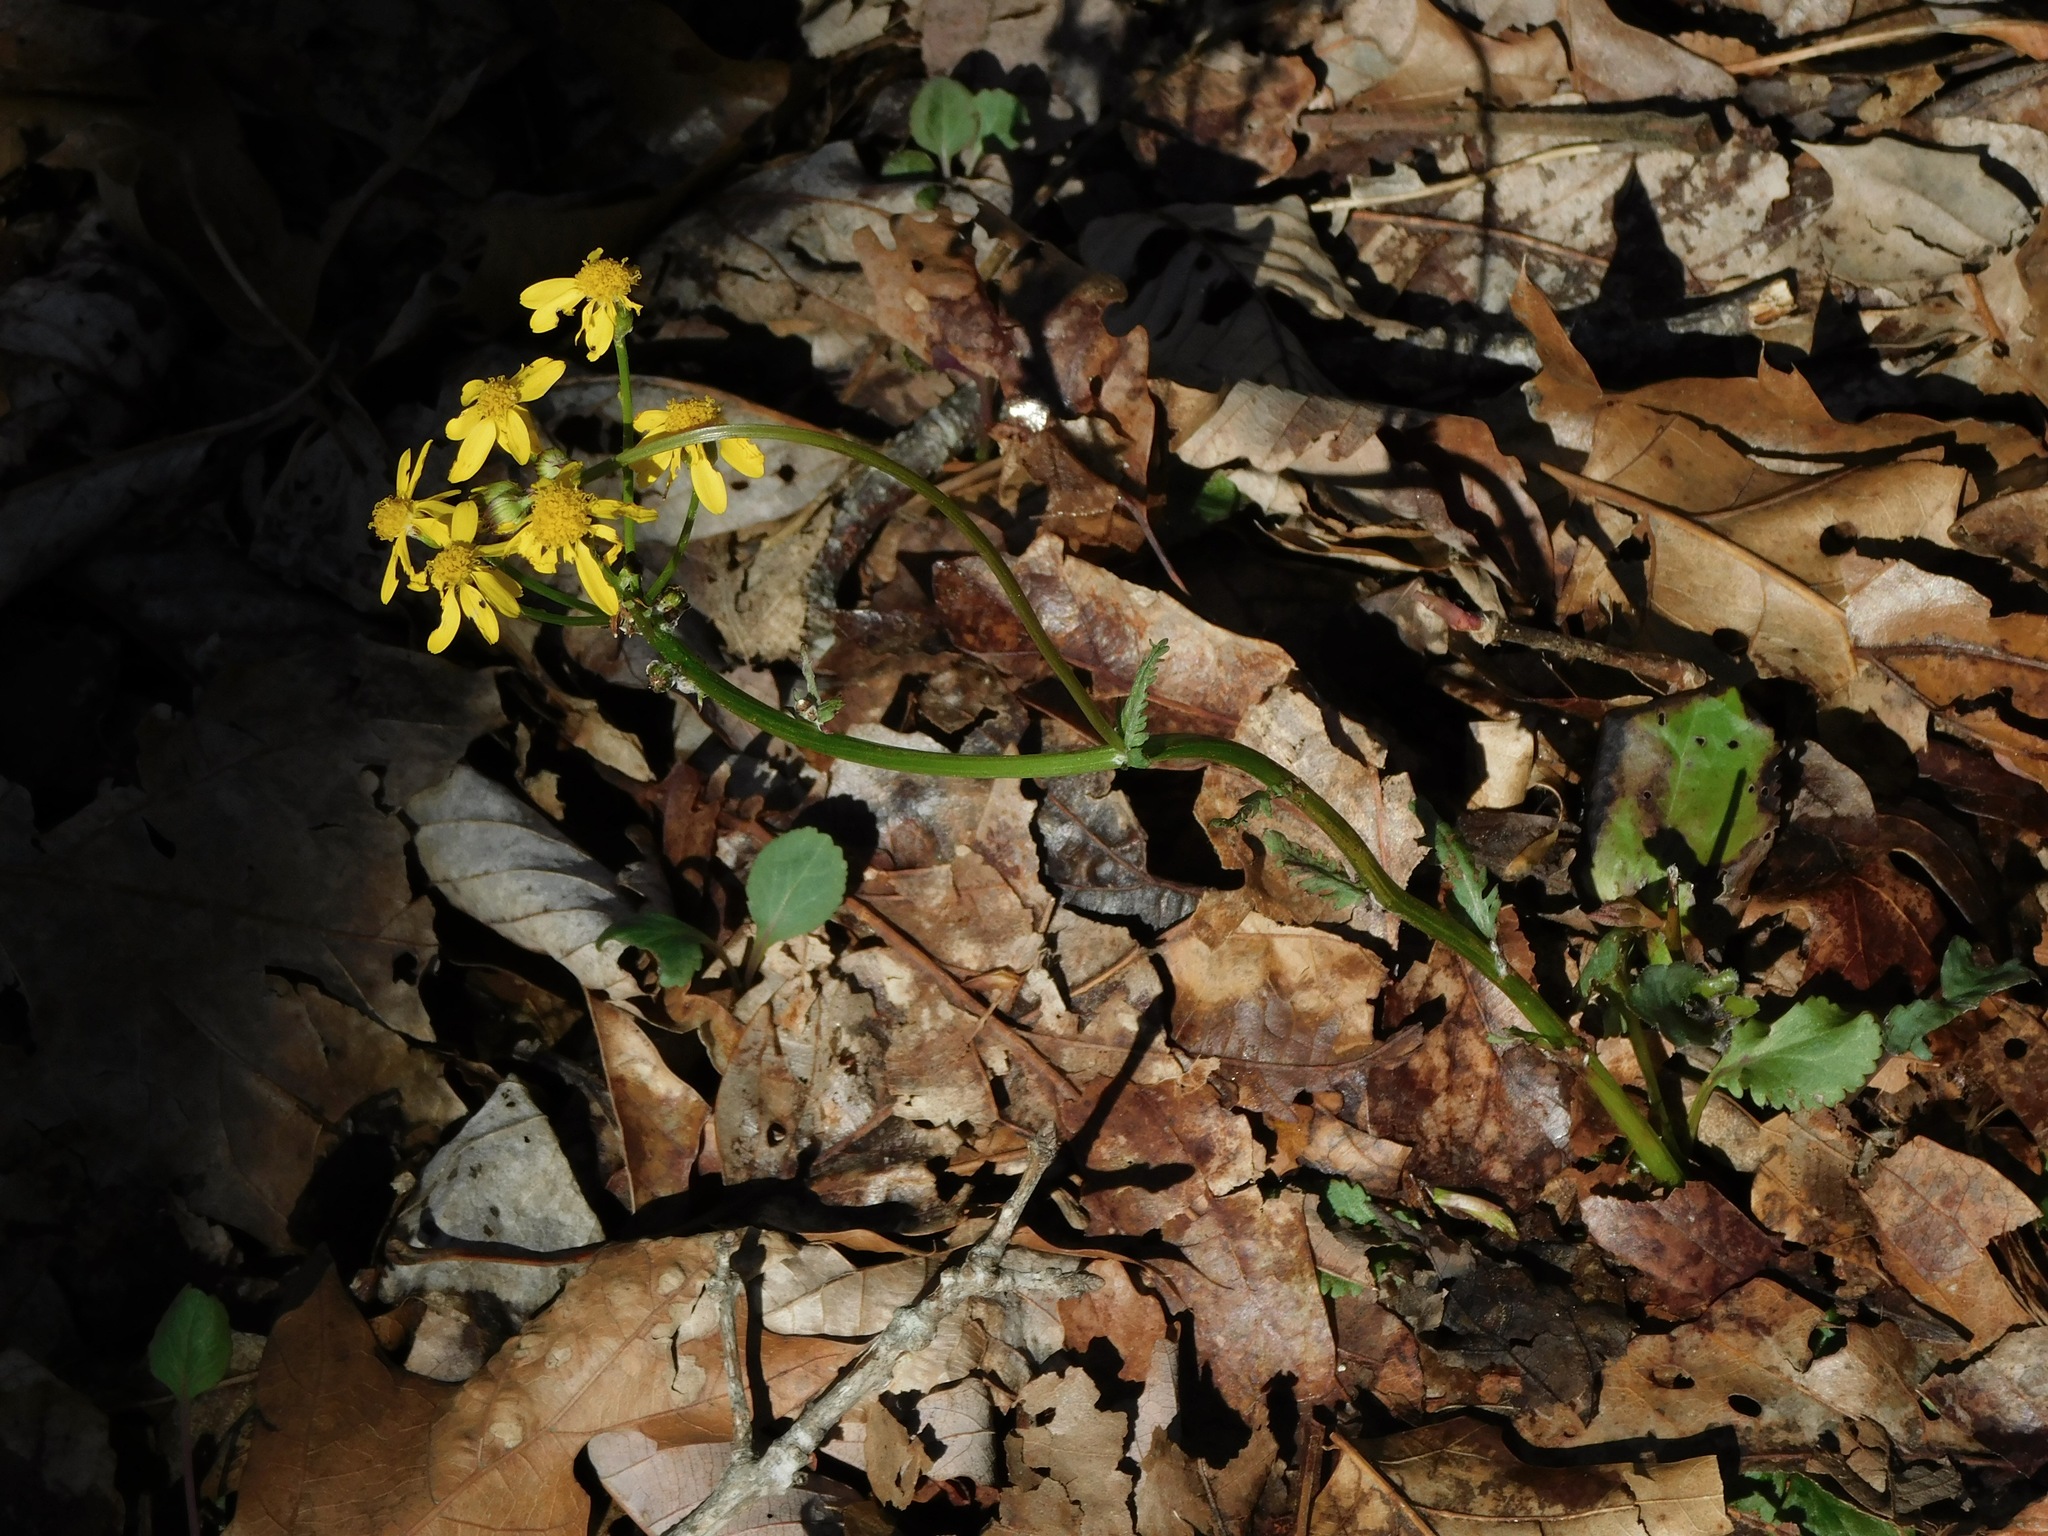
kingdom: Plantae
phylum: Tracheophyta
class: Magnoliopsida
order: Asterales
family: Asteraceae
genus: Packera
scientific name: Packera obovata
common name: Round-leaf ragwort
